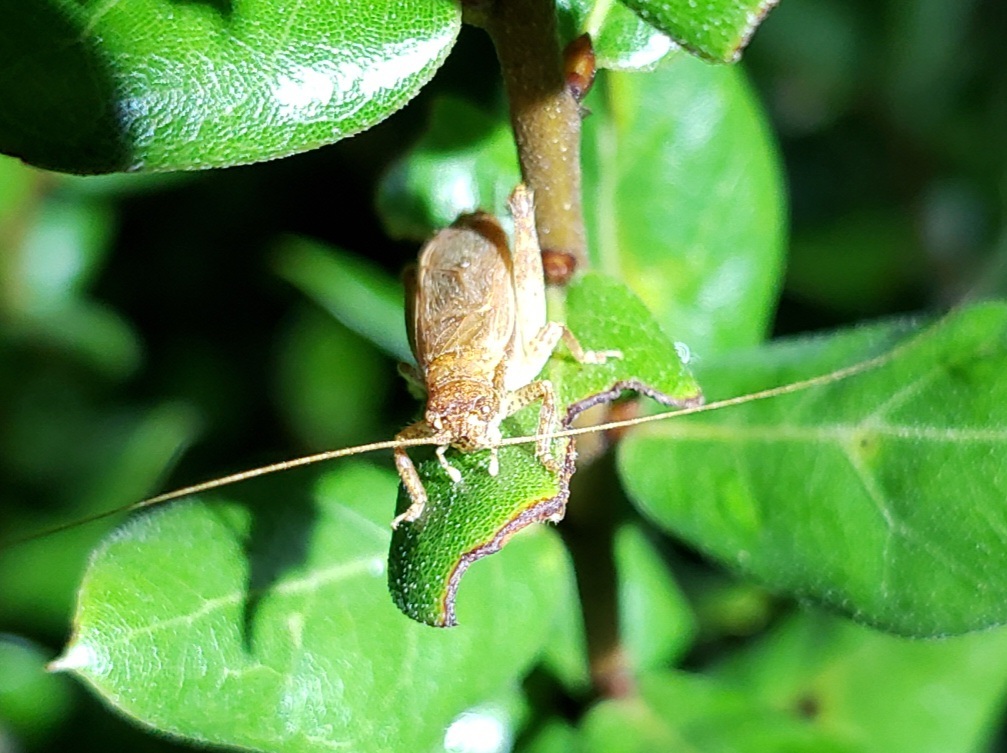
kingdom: Animalia
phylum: Arthropoda
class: Insecta
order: Orthoptera
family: Gryllidae
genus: Hapithus
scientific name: Hapithus luteolira
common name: False jumping bush cricket
